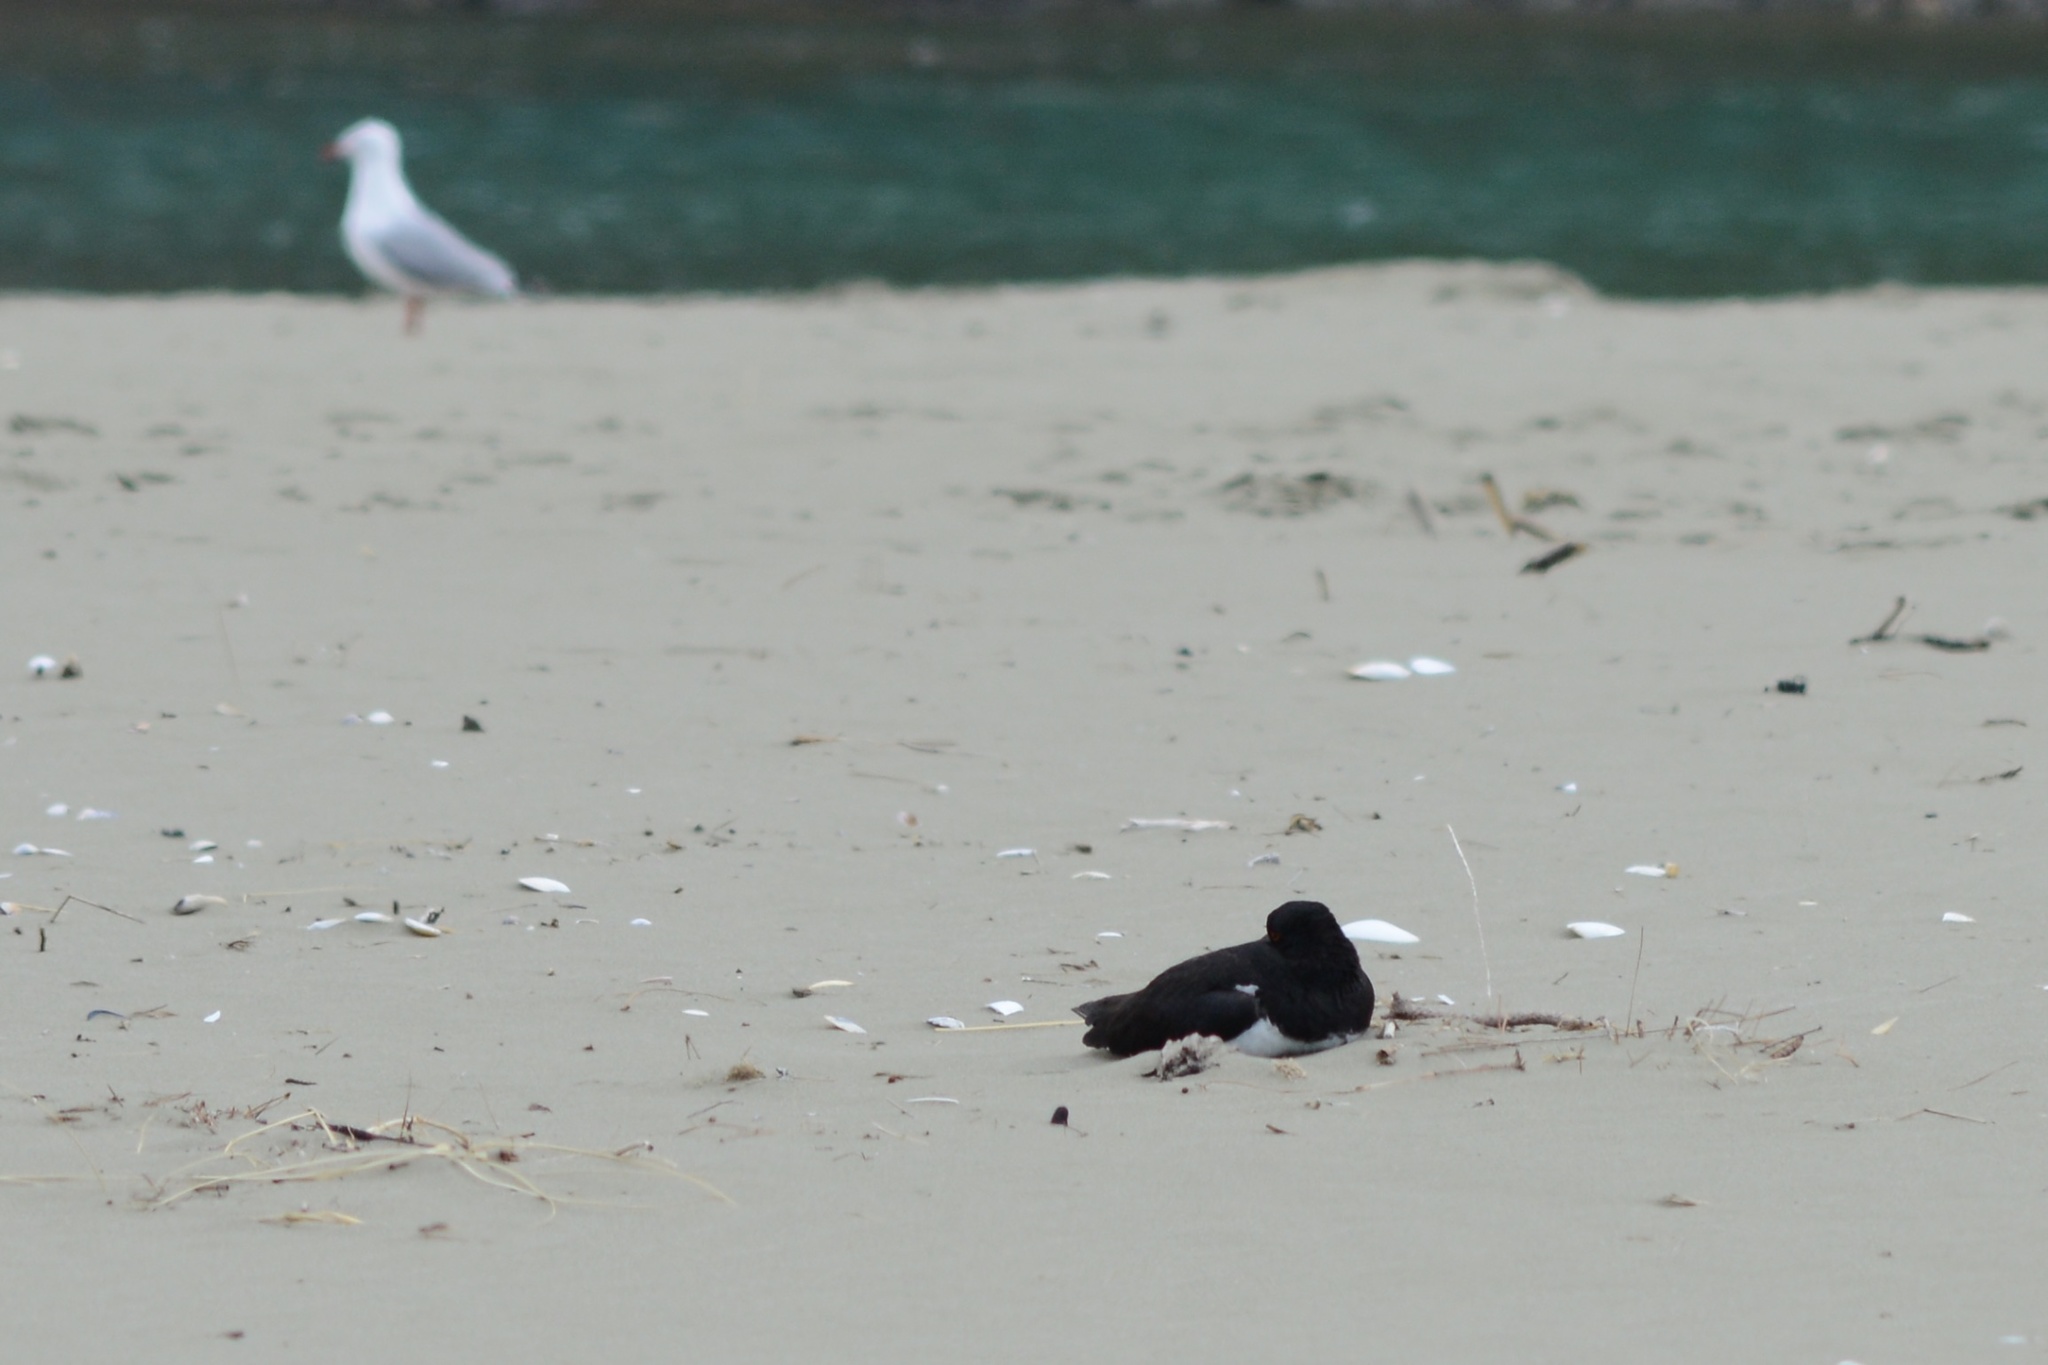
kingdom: Animalia
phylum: Chordata
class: Aves
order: Charadriiformes
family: Haematopodidae
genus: Haematopus
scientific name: Haematopus finschi
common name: South island oystercatcher
